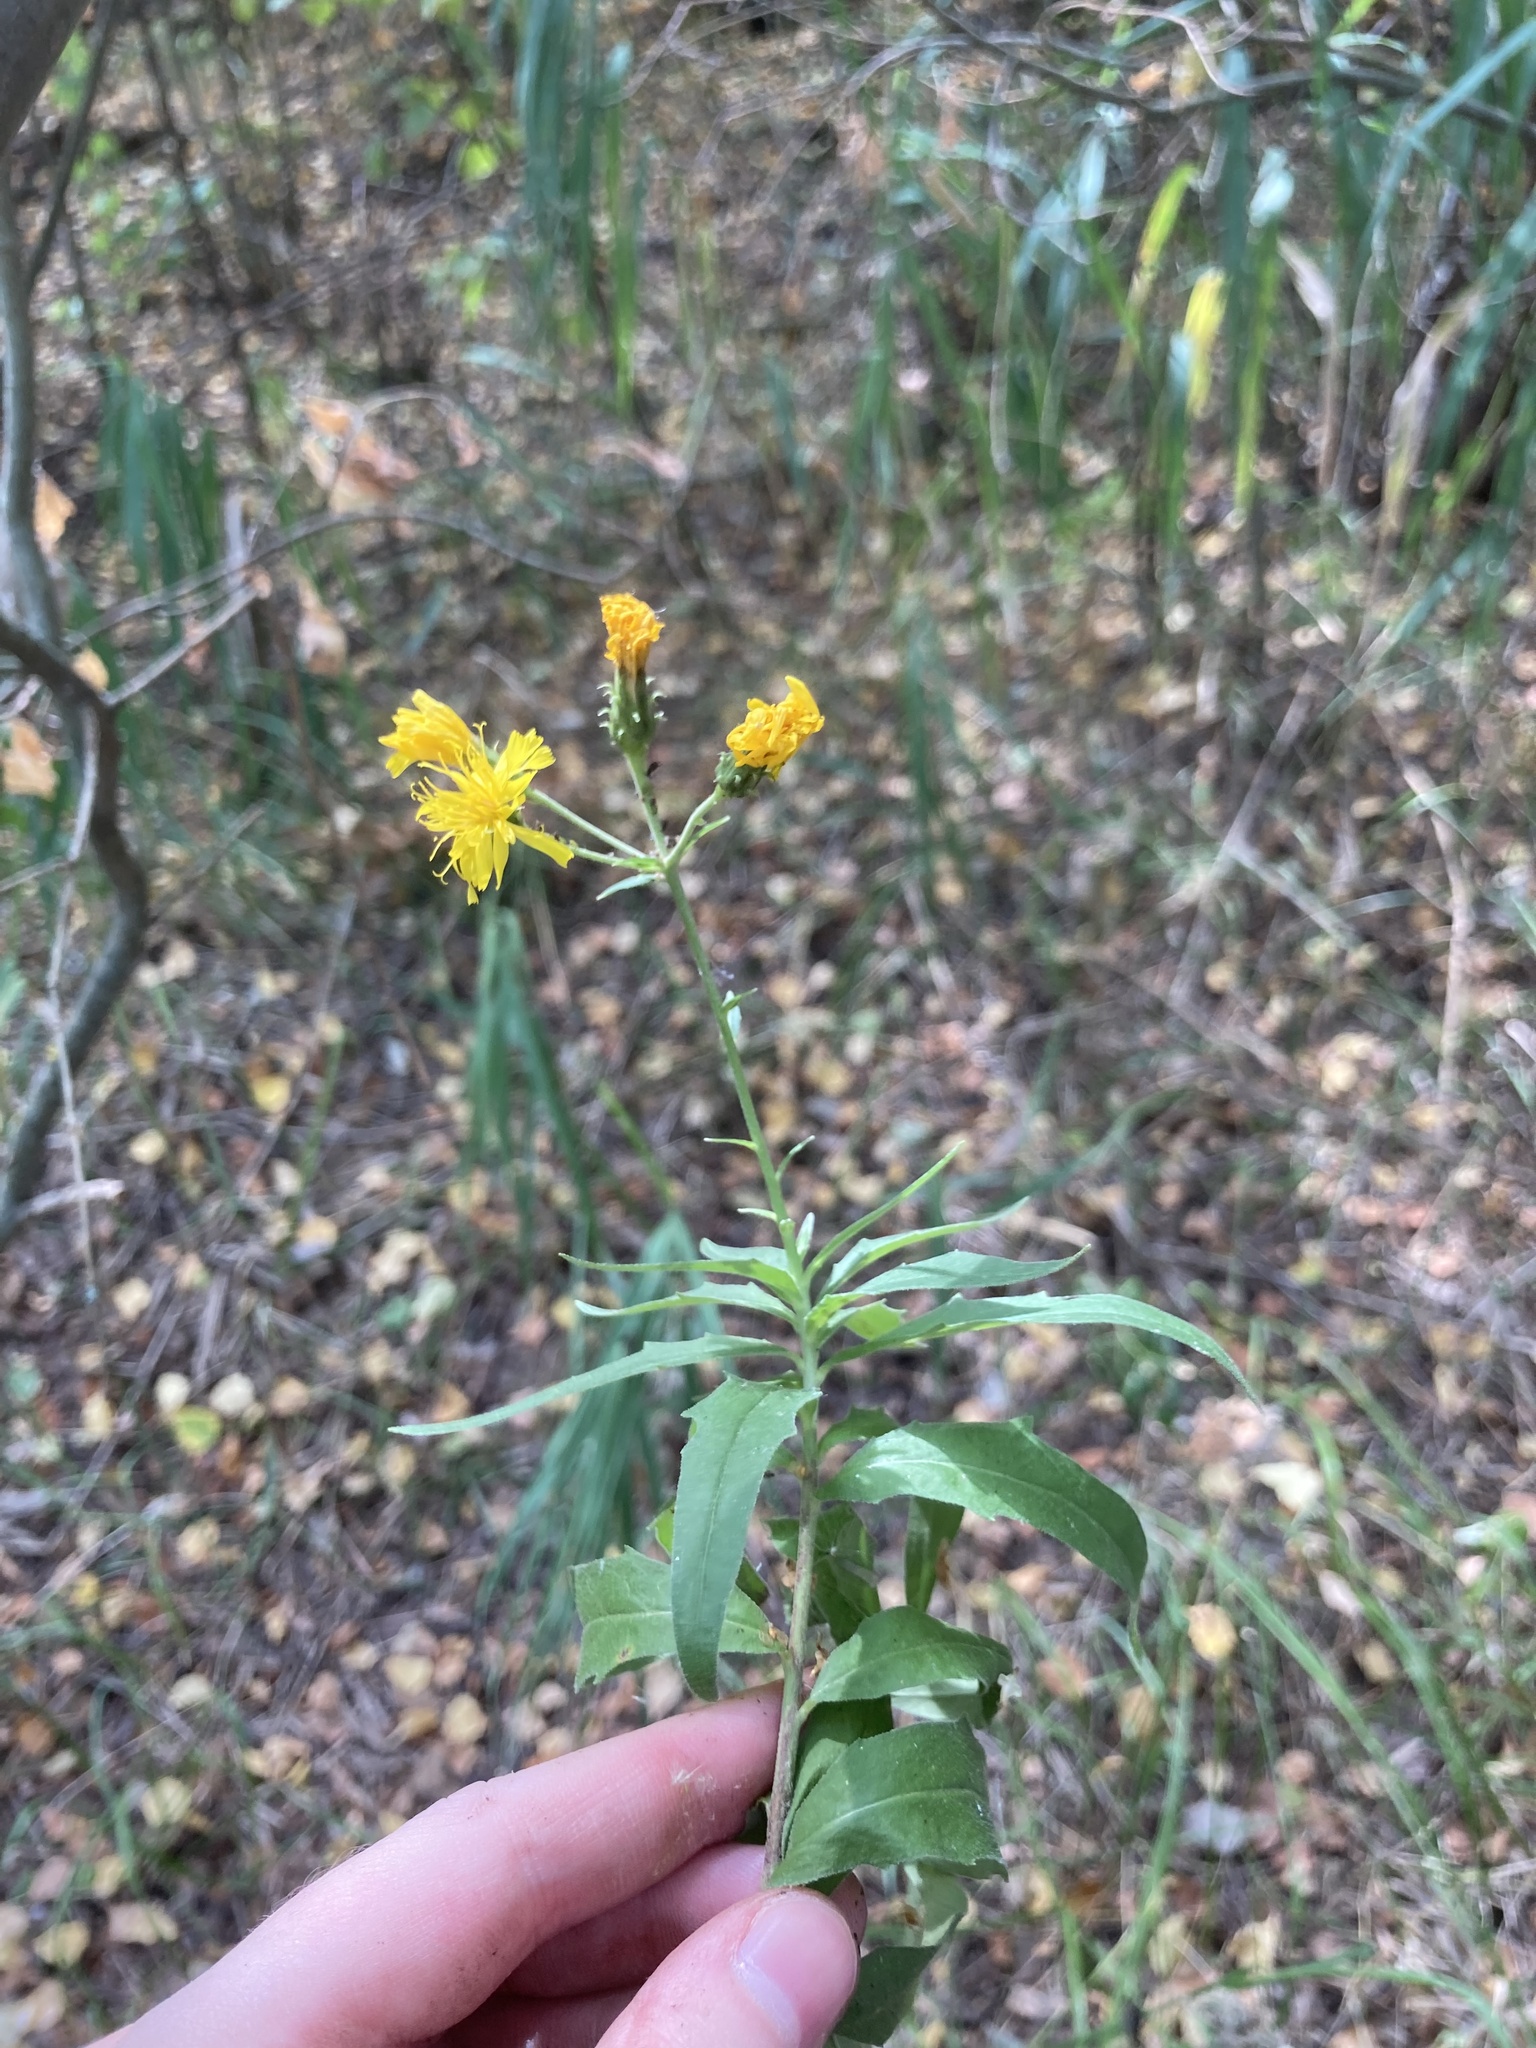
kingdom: Plantae
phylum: Tracheophyta
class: Magnoliopsida
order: Asterales
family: Asteraceae
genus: Hieracium
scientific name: Hieracium umbellatum
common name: Northern hawkweed
